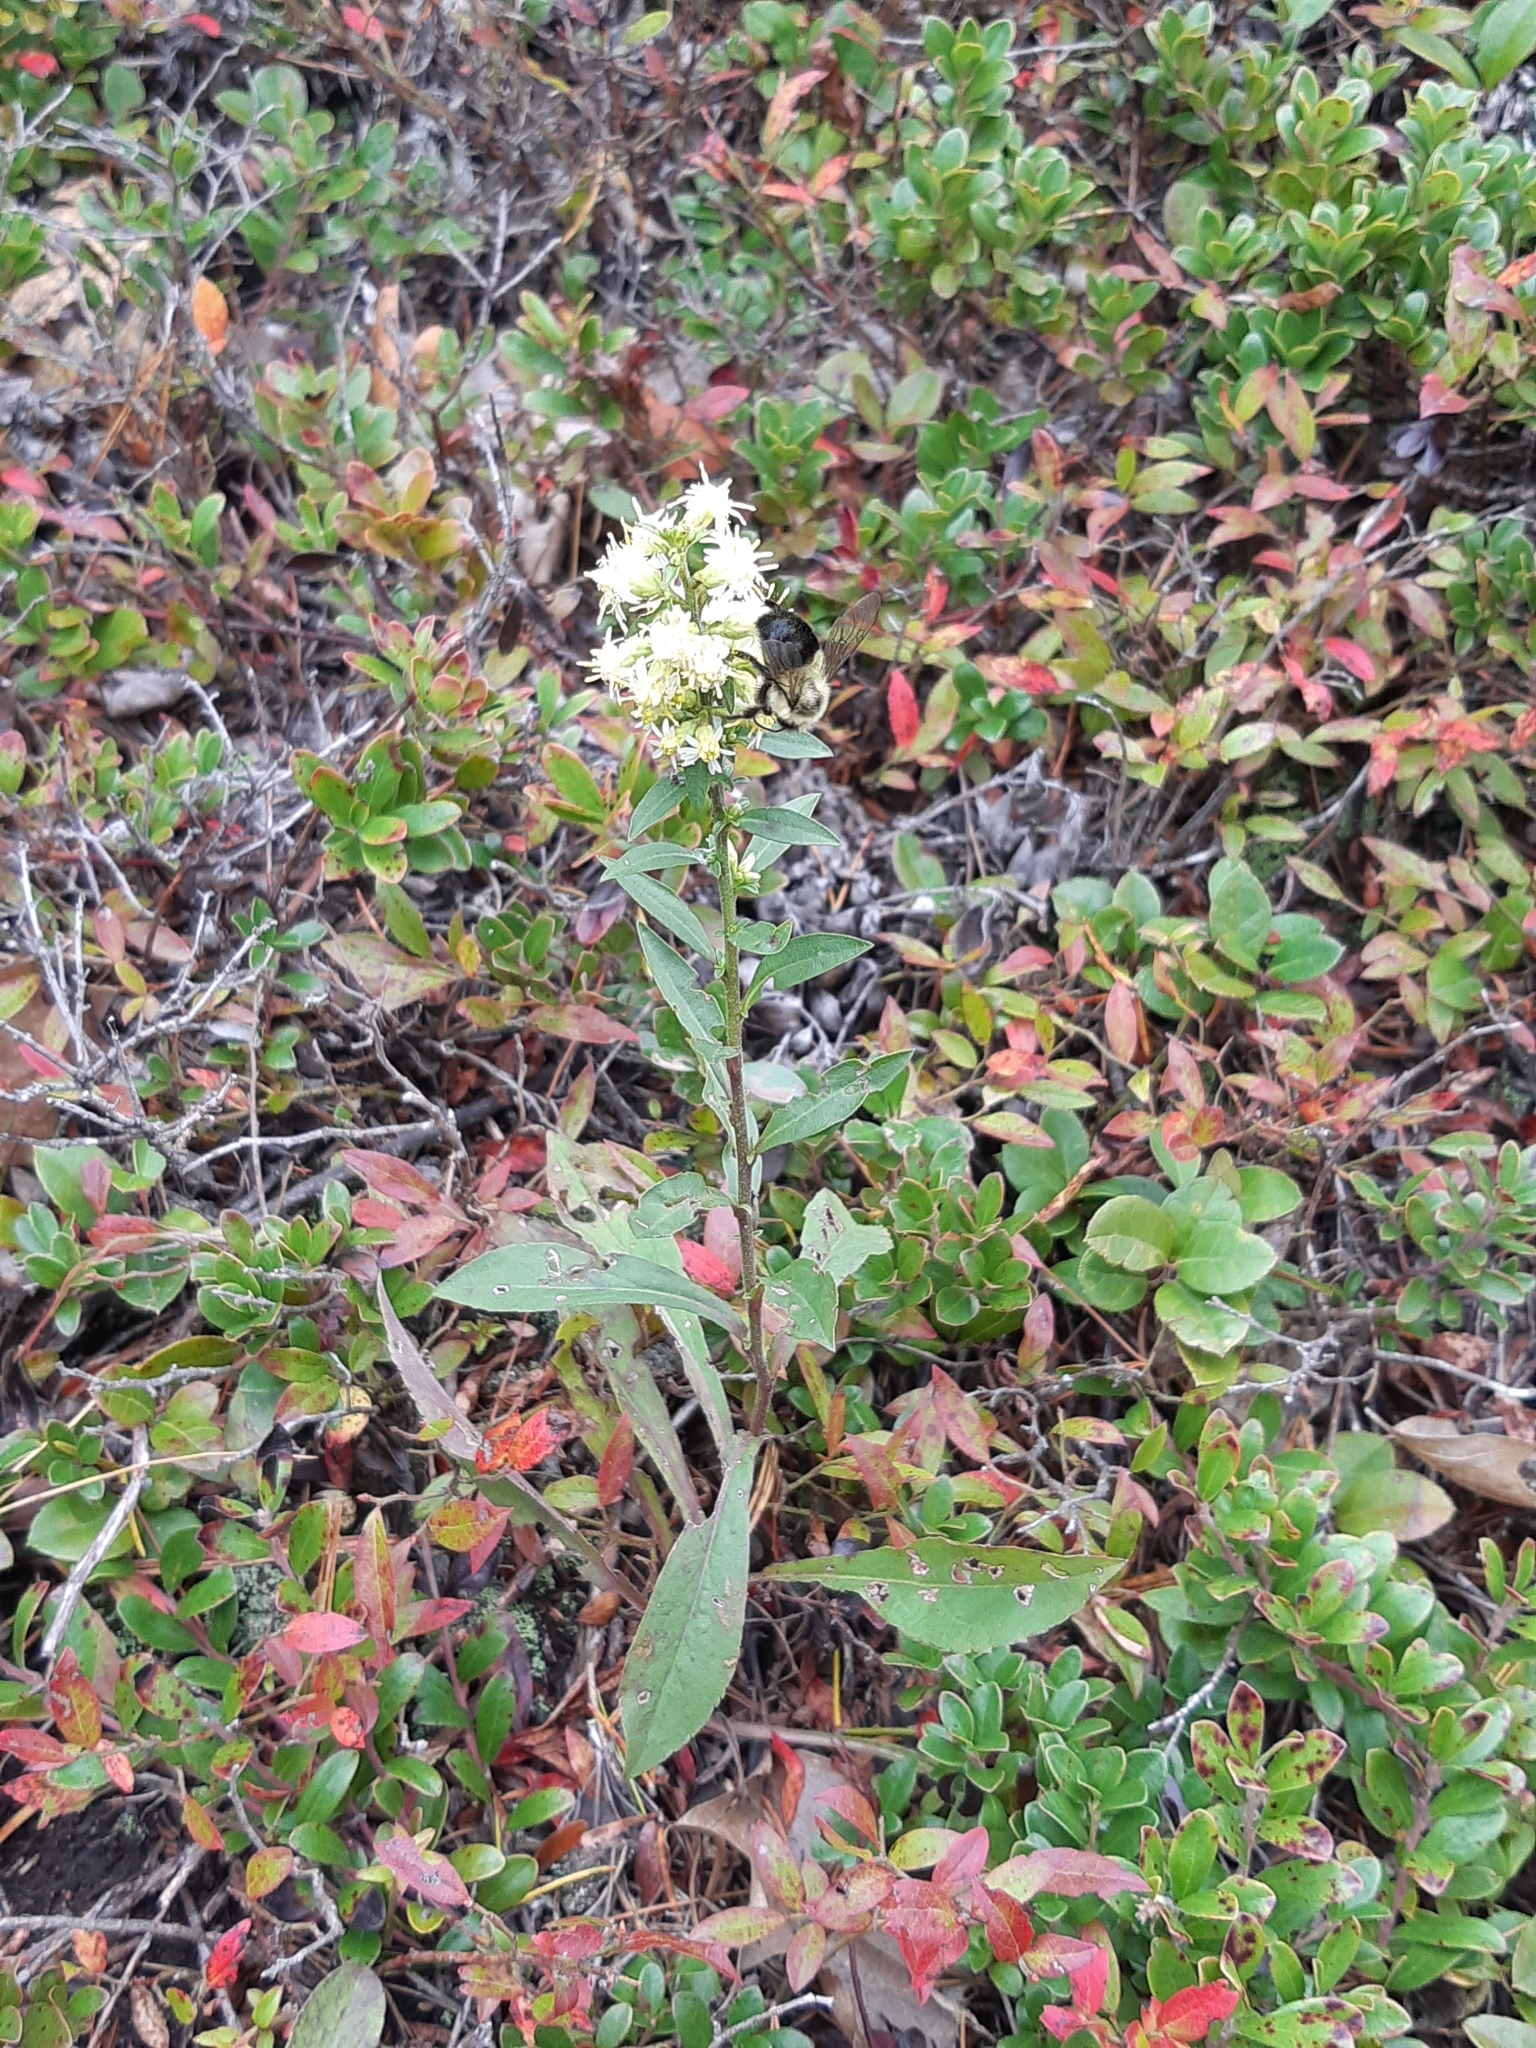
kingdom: Plantae
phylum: Tracheophyta
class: Magnoliopsida
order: Asterales
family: Asteraceae
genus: Solidago
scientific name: Solidago bicolor
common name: Silverrod
